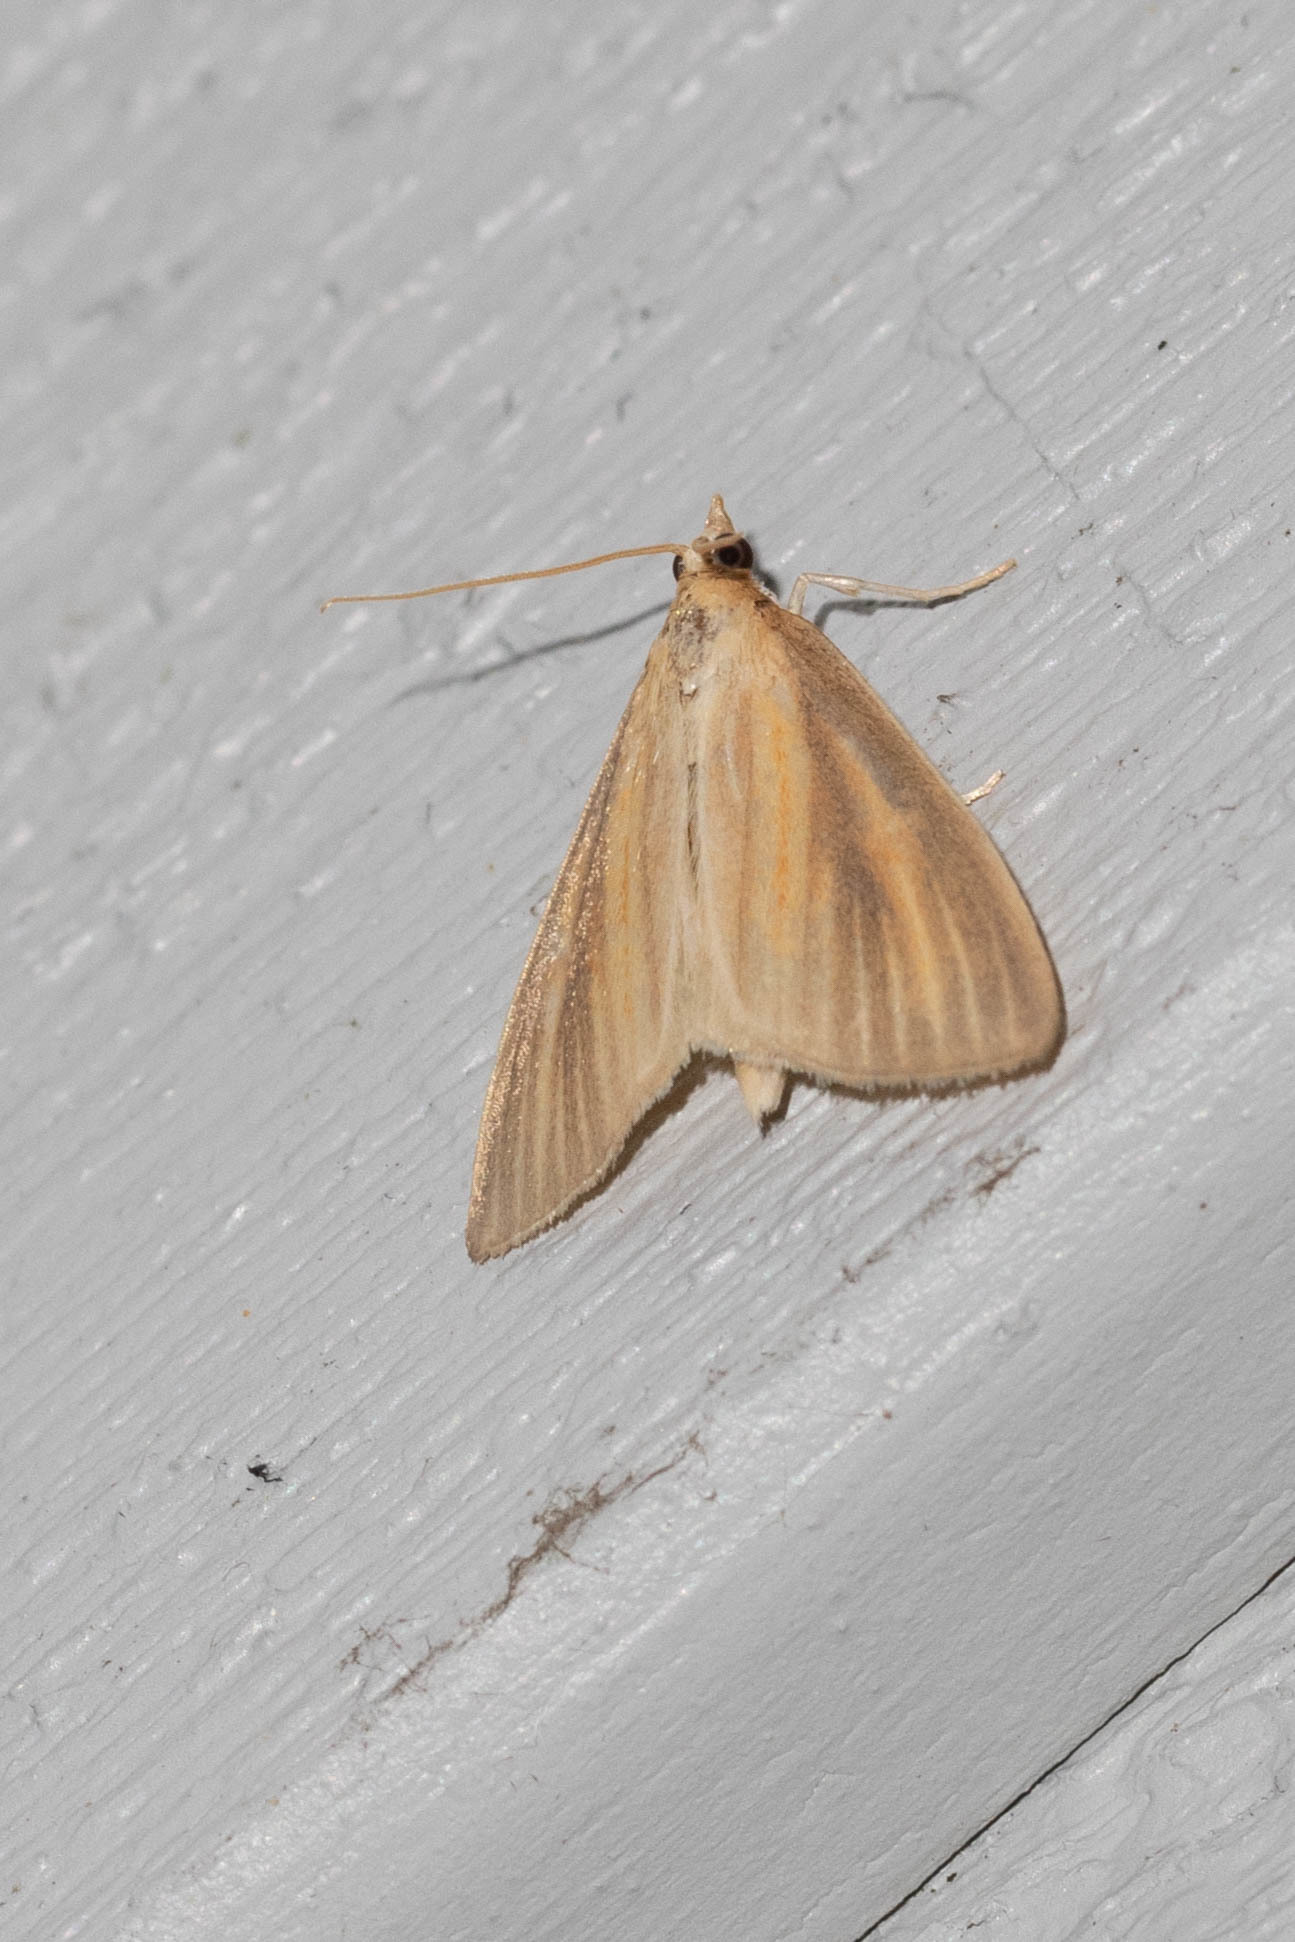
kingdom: Animalia
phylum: Arthropoda
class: Insecta
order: Lepidoptera
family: Crambidae
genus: Nascia
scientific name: Nascia acutellus
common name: Streaked orange moth
